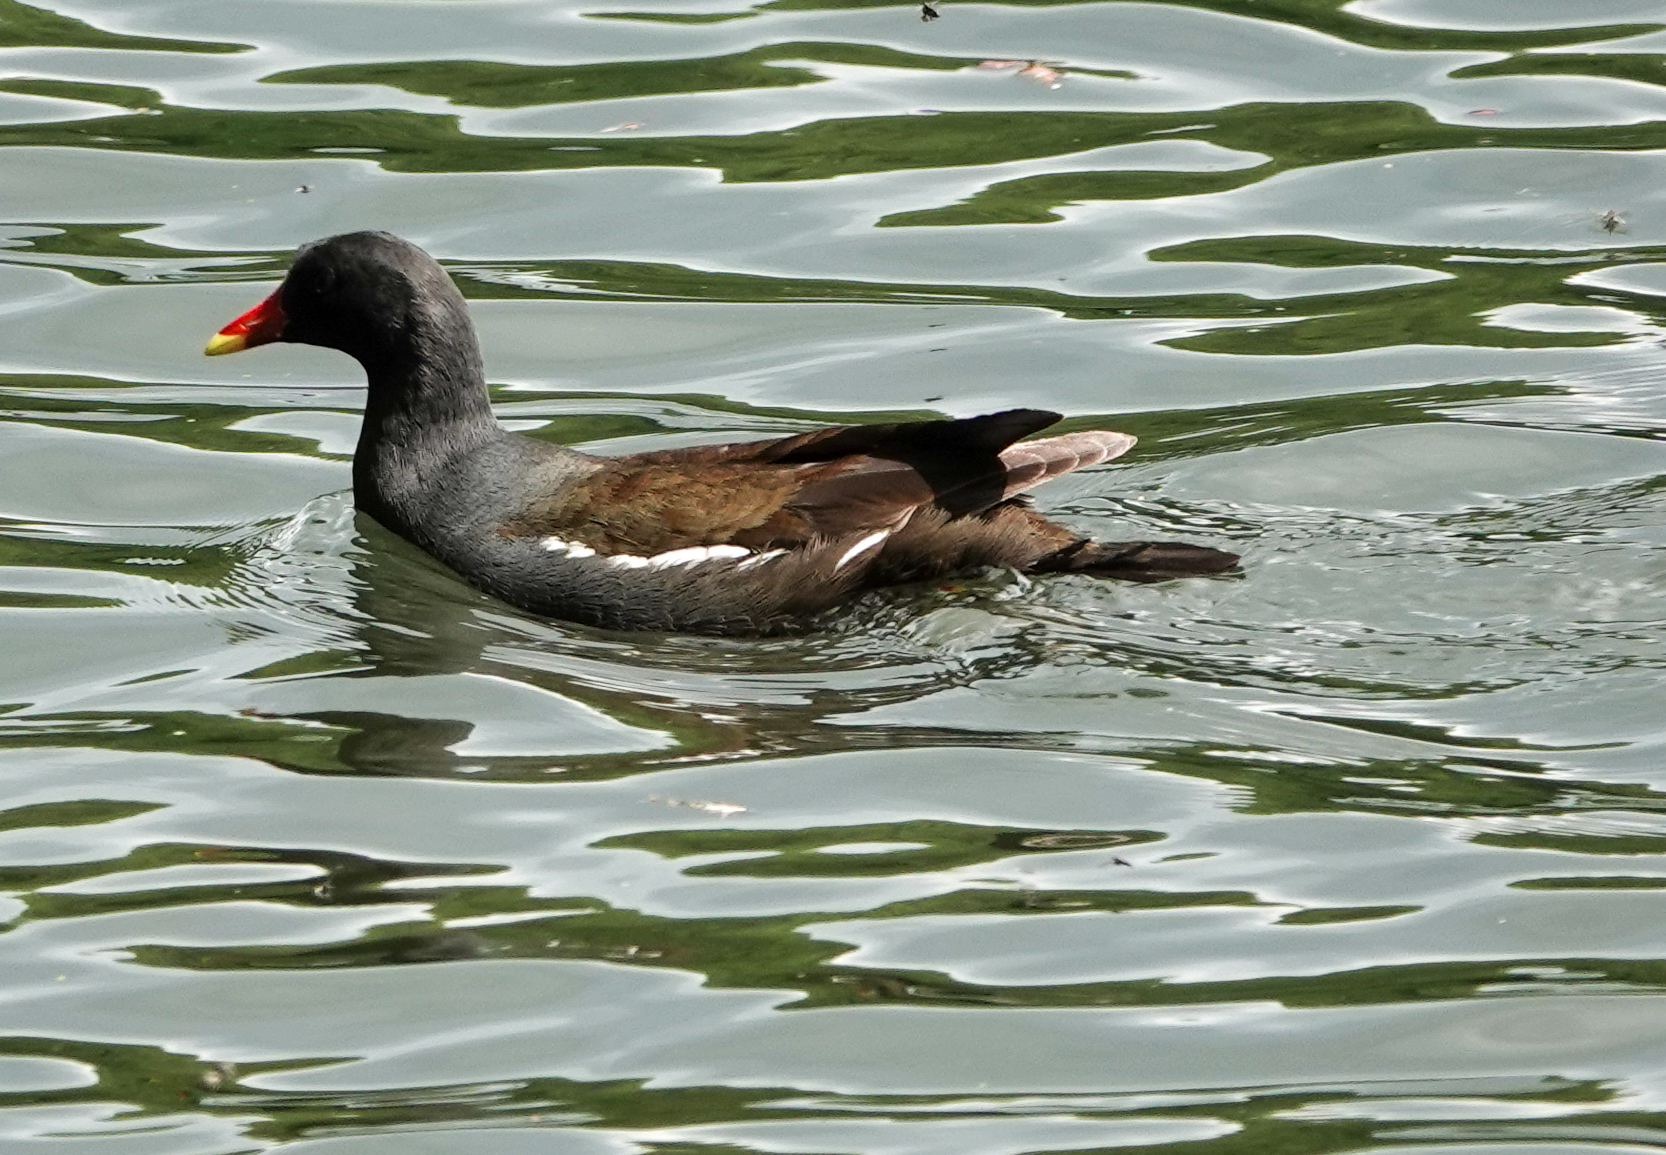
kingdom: Animalia
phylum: Chordata
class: Aves
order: Gruiformes
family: Rallidae
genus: Gallinula
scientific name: Gallinula chloropus
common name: Common moorhen
